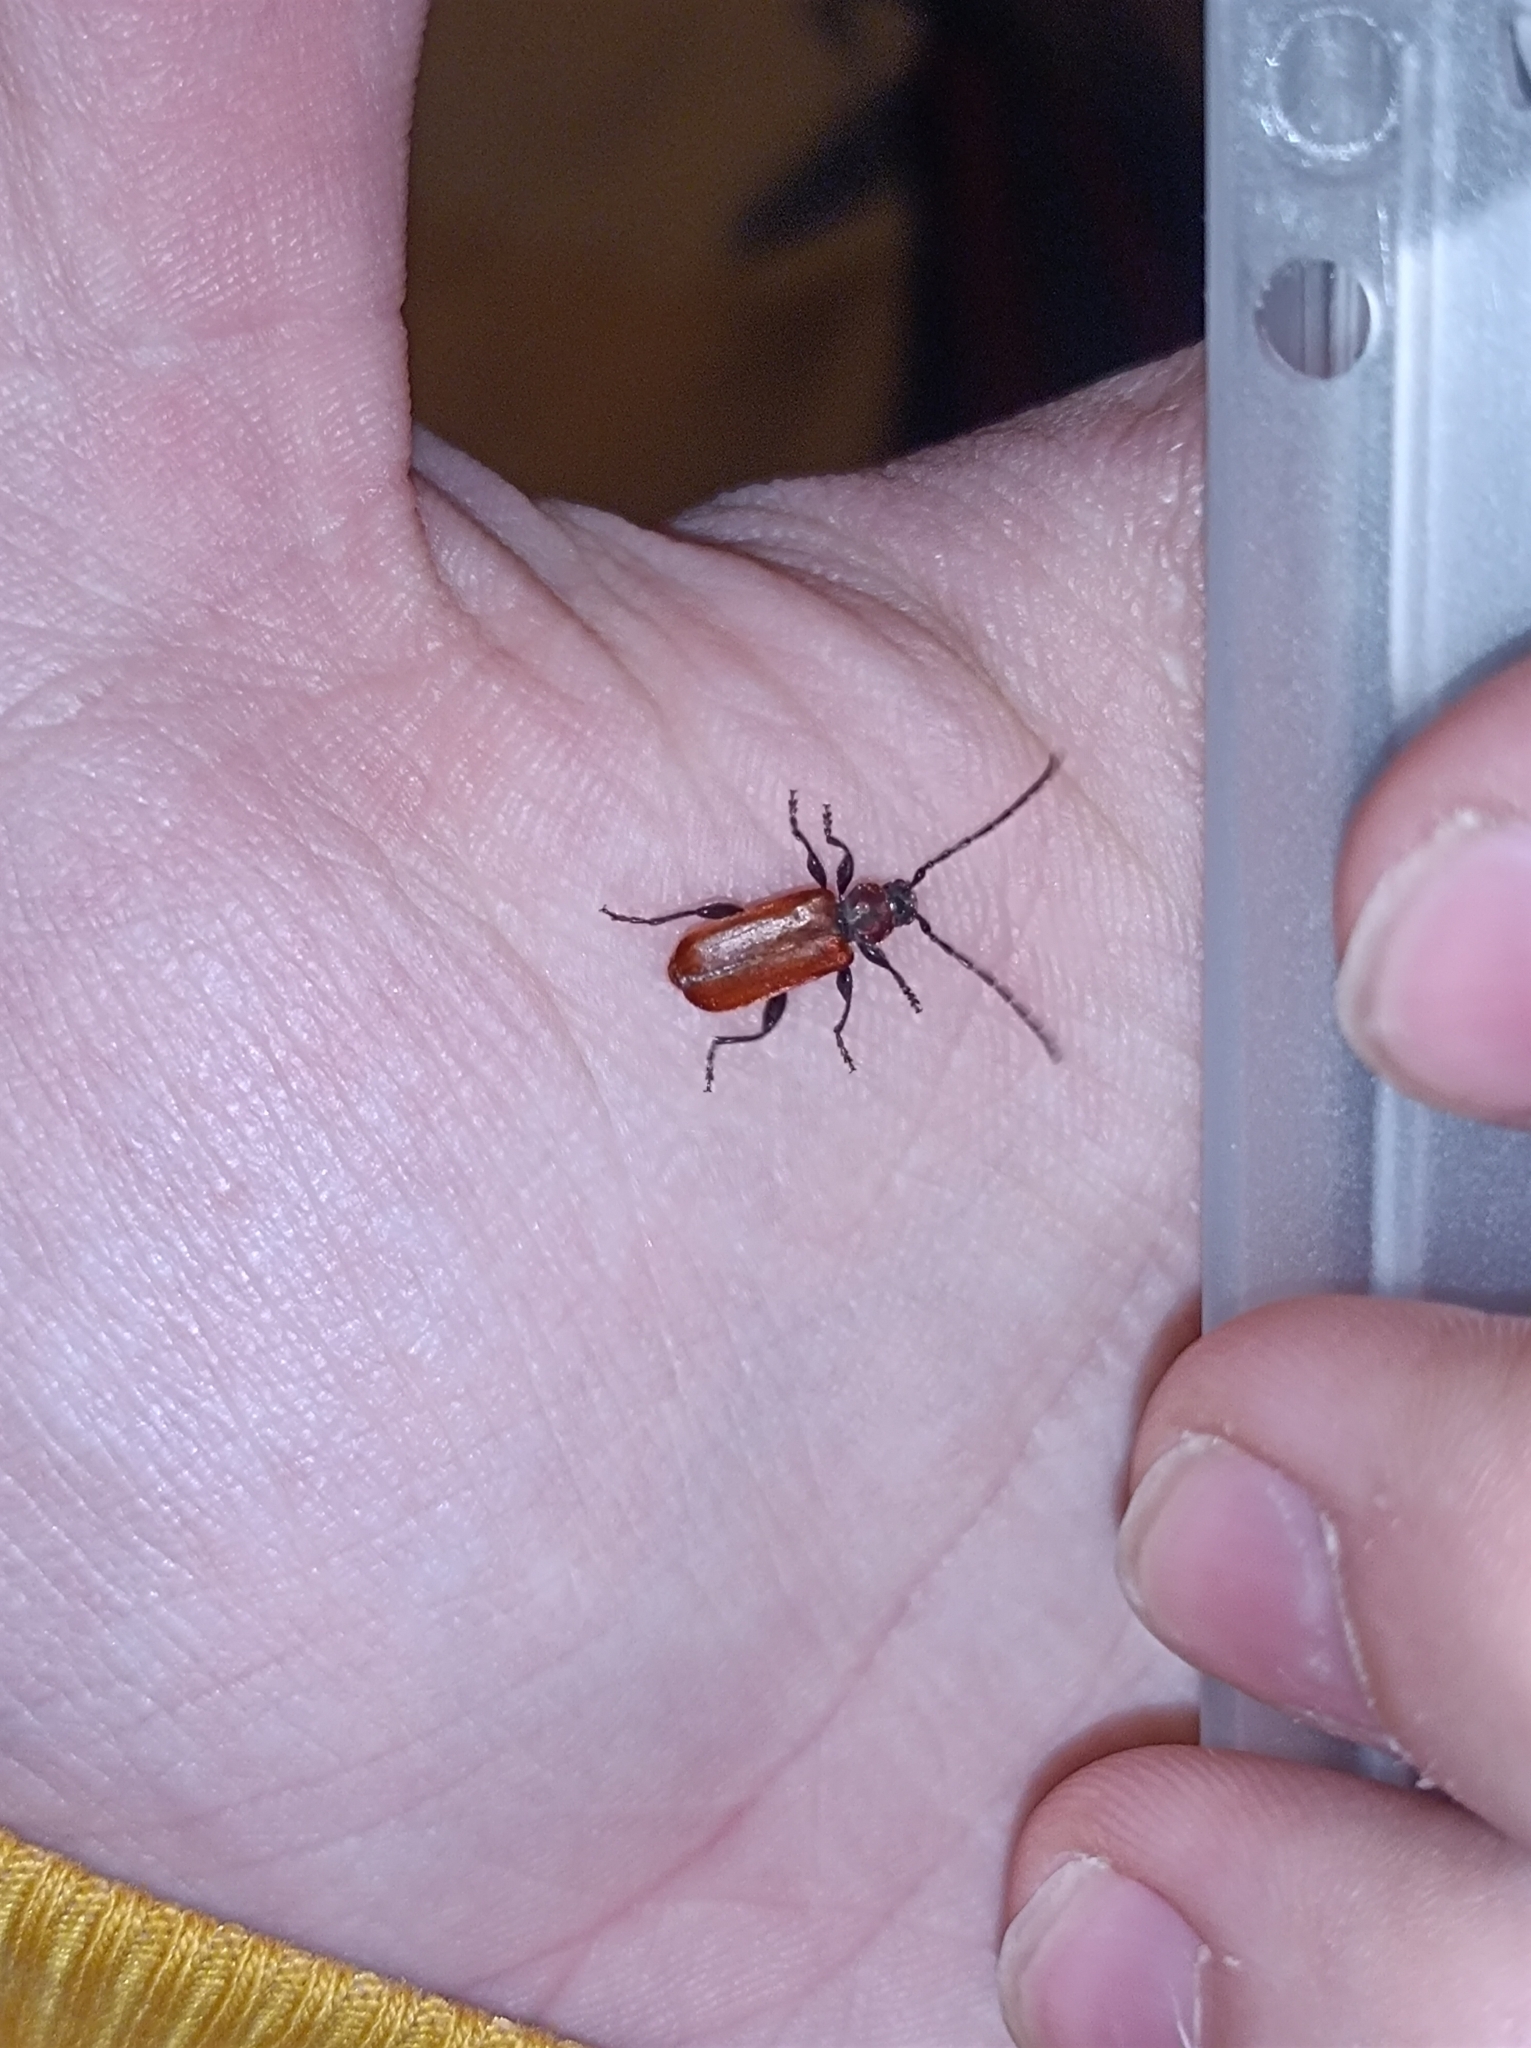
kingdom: Animalia
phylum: Arthropoda
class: Insecta
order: Coleoptera
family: Cerambycidae
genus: Pyrrhidium
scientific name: Pyrrhidium sanguineum
